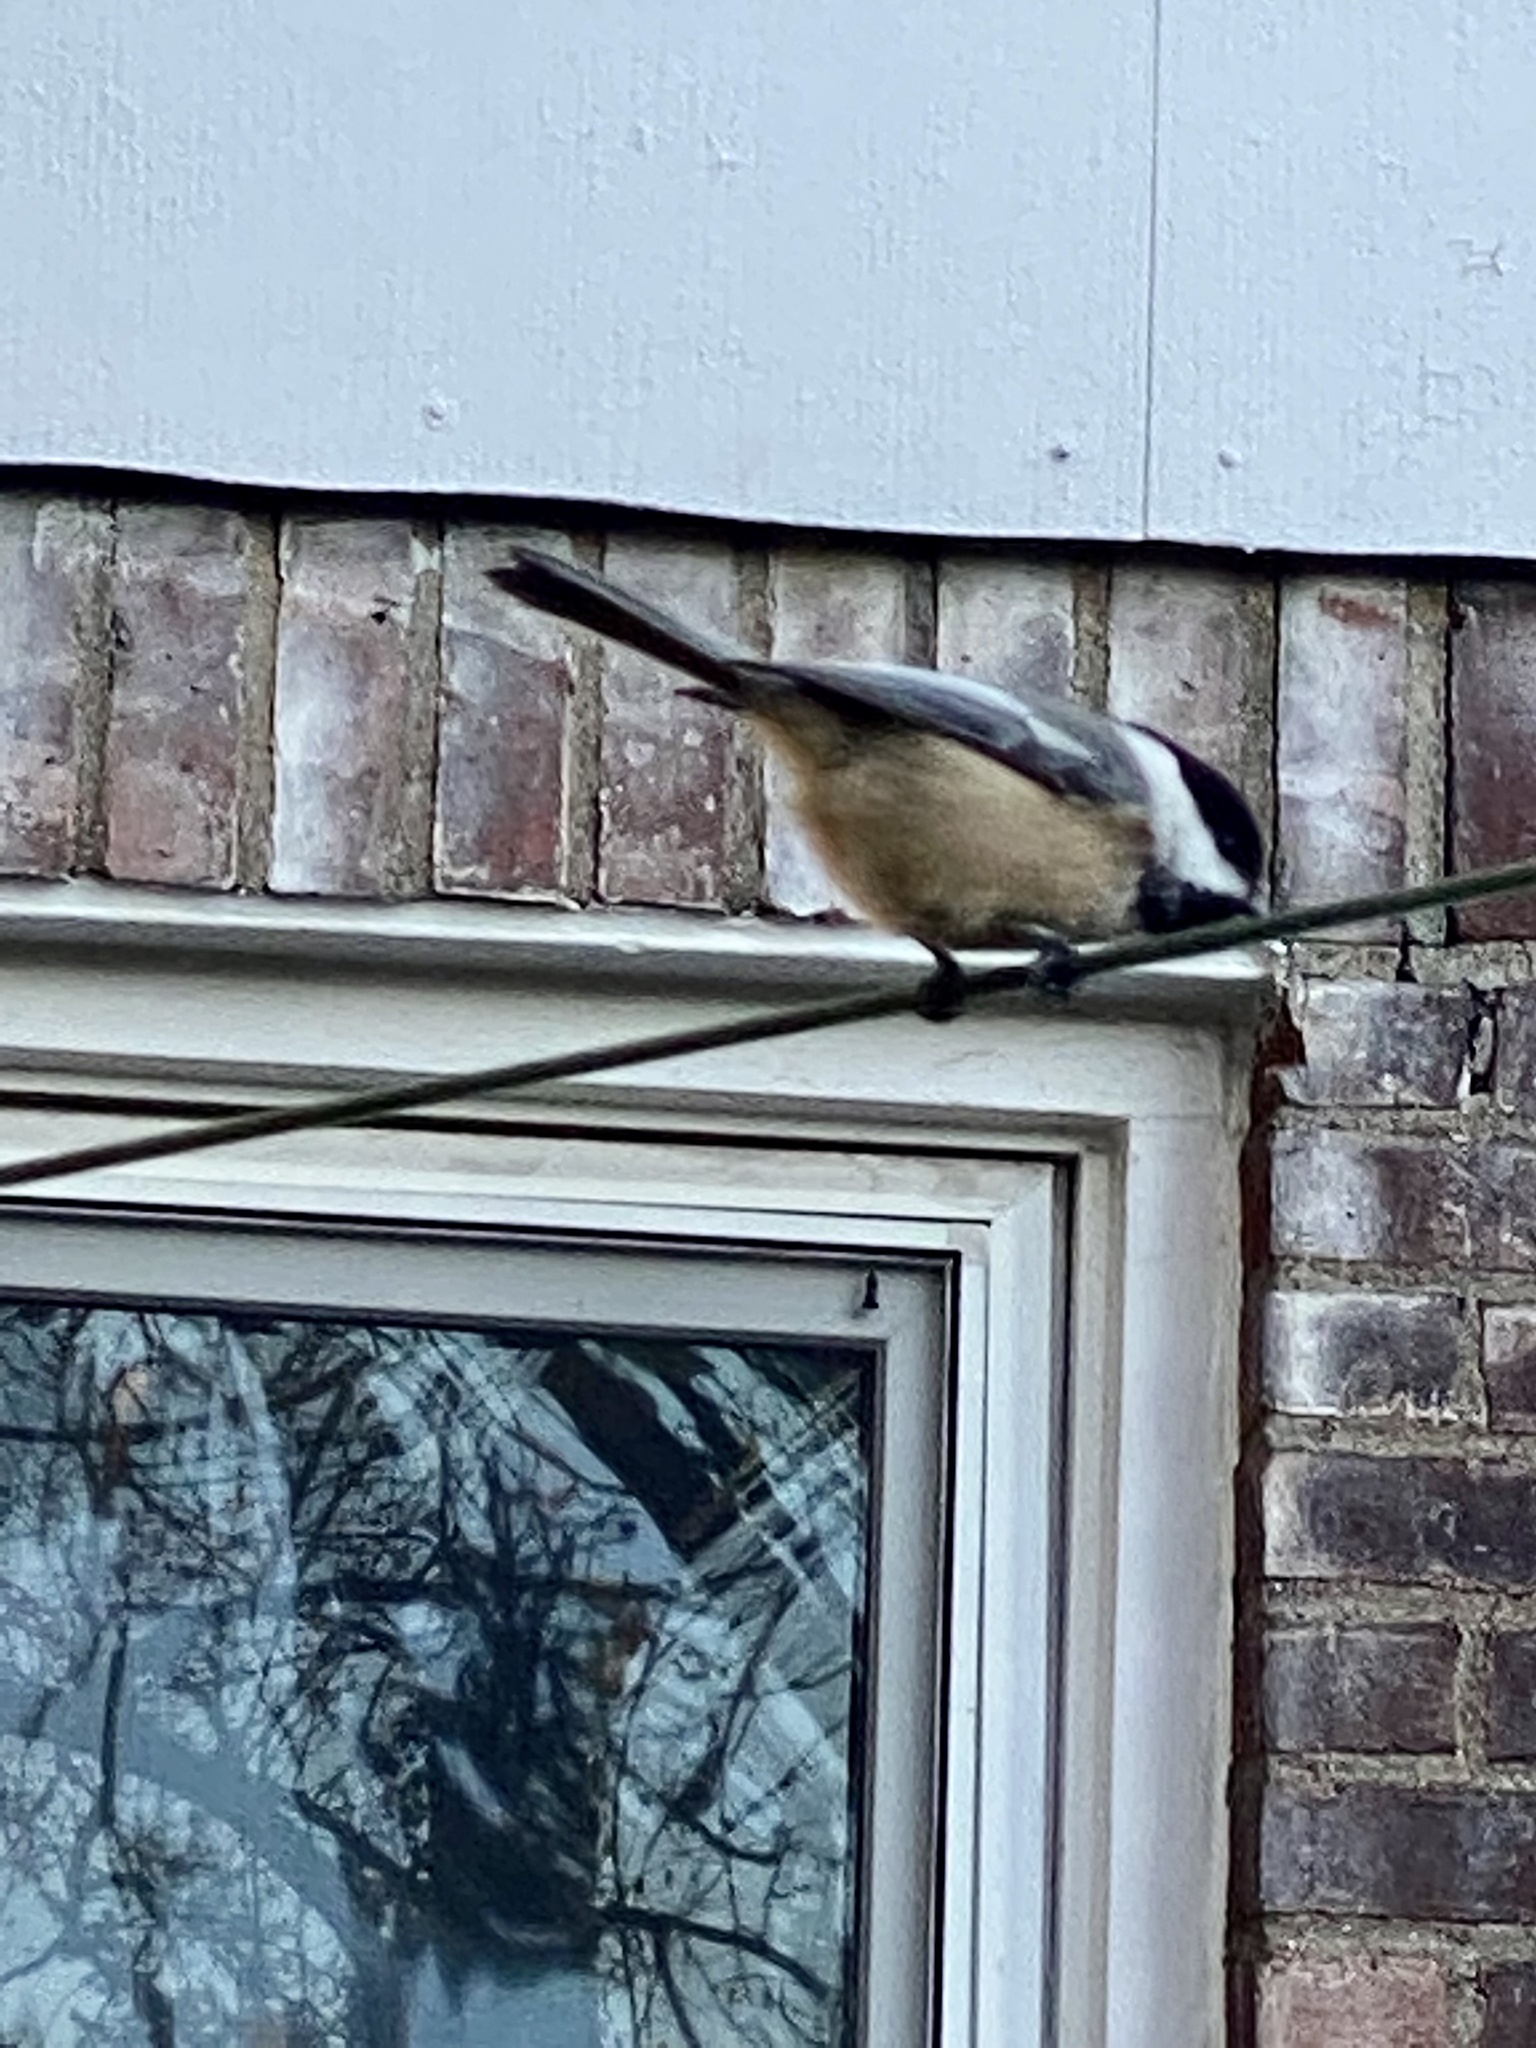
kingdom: Animalia
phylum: Chordata
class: Aves
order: Passeriformes
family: Paridae
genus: Poecile
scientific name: Poecile atricapillus
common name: Black-capped chickadee
